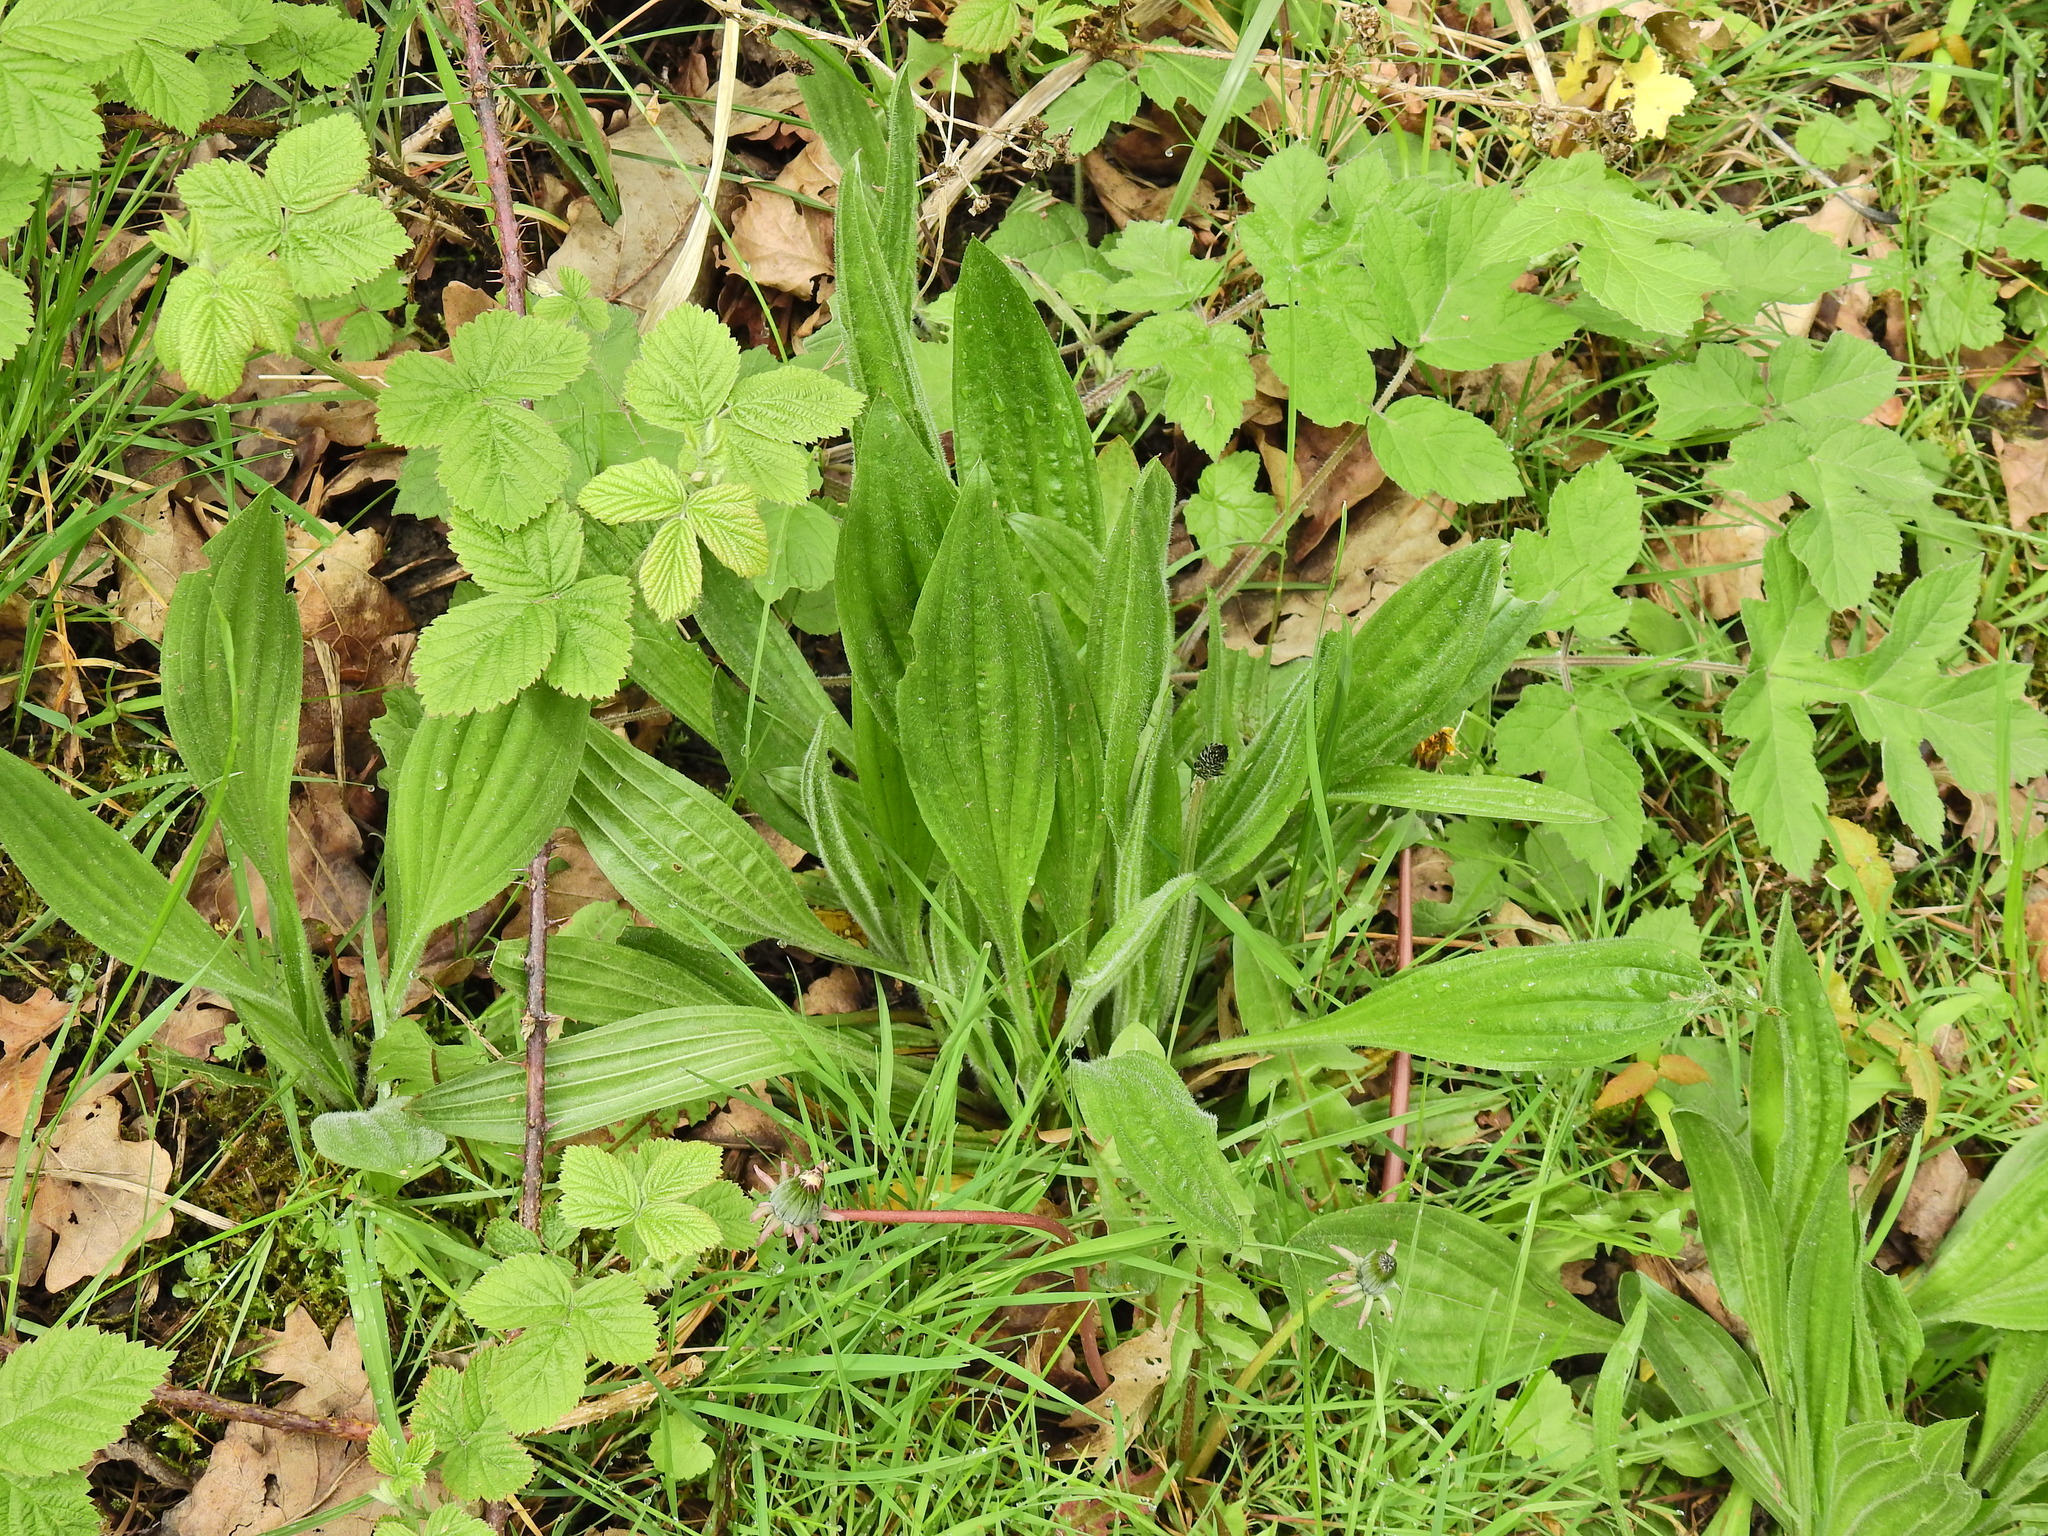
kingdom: Plantae
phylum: Tracheophyta
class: Magnoliopsida
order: Lamiales
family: Plantaginaceae
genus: Plantago
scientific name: Plantago lanceolata
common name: Ribwort plantain
